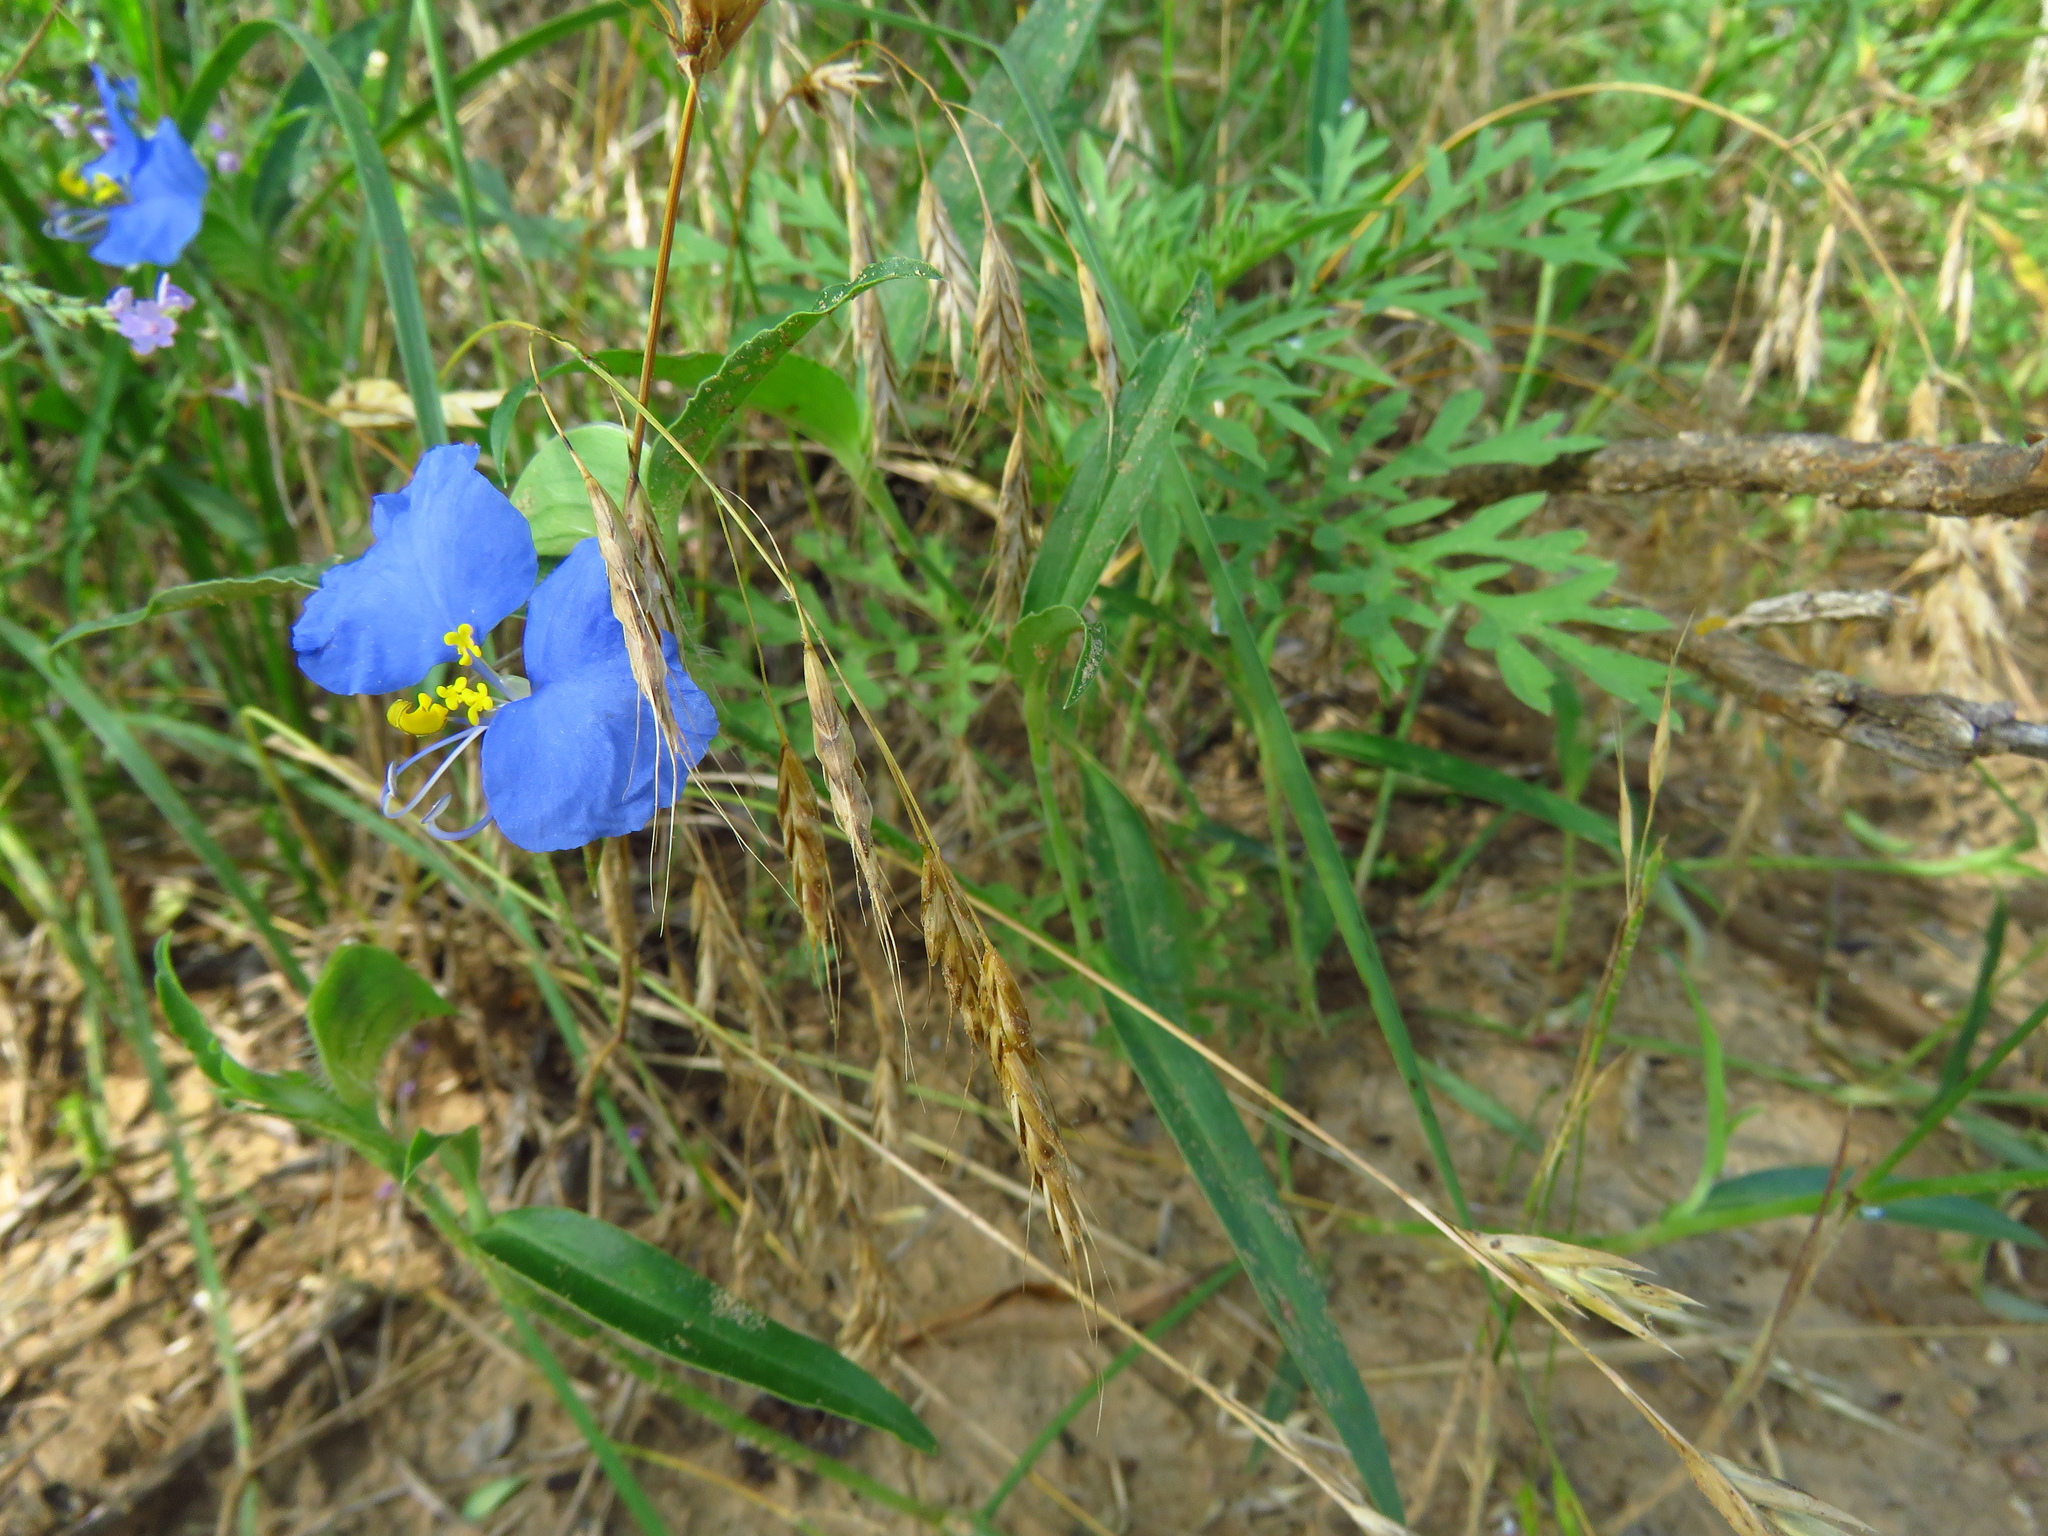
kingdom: Plantae
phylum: Tracheophyta
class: Liliopsida
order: Commelinales
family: Commelinaceae
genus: Commelina
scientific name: Commelina erecta
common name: Blousel blommetjie
